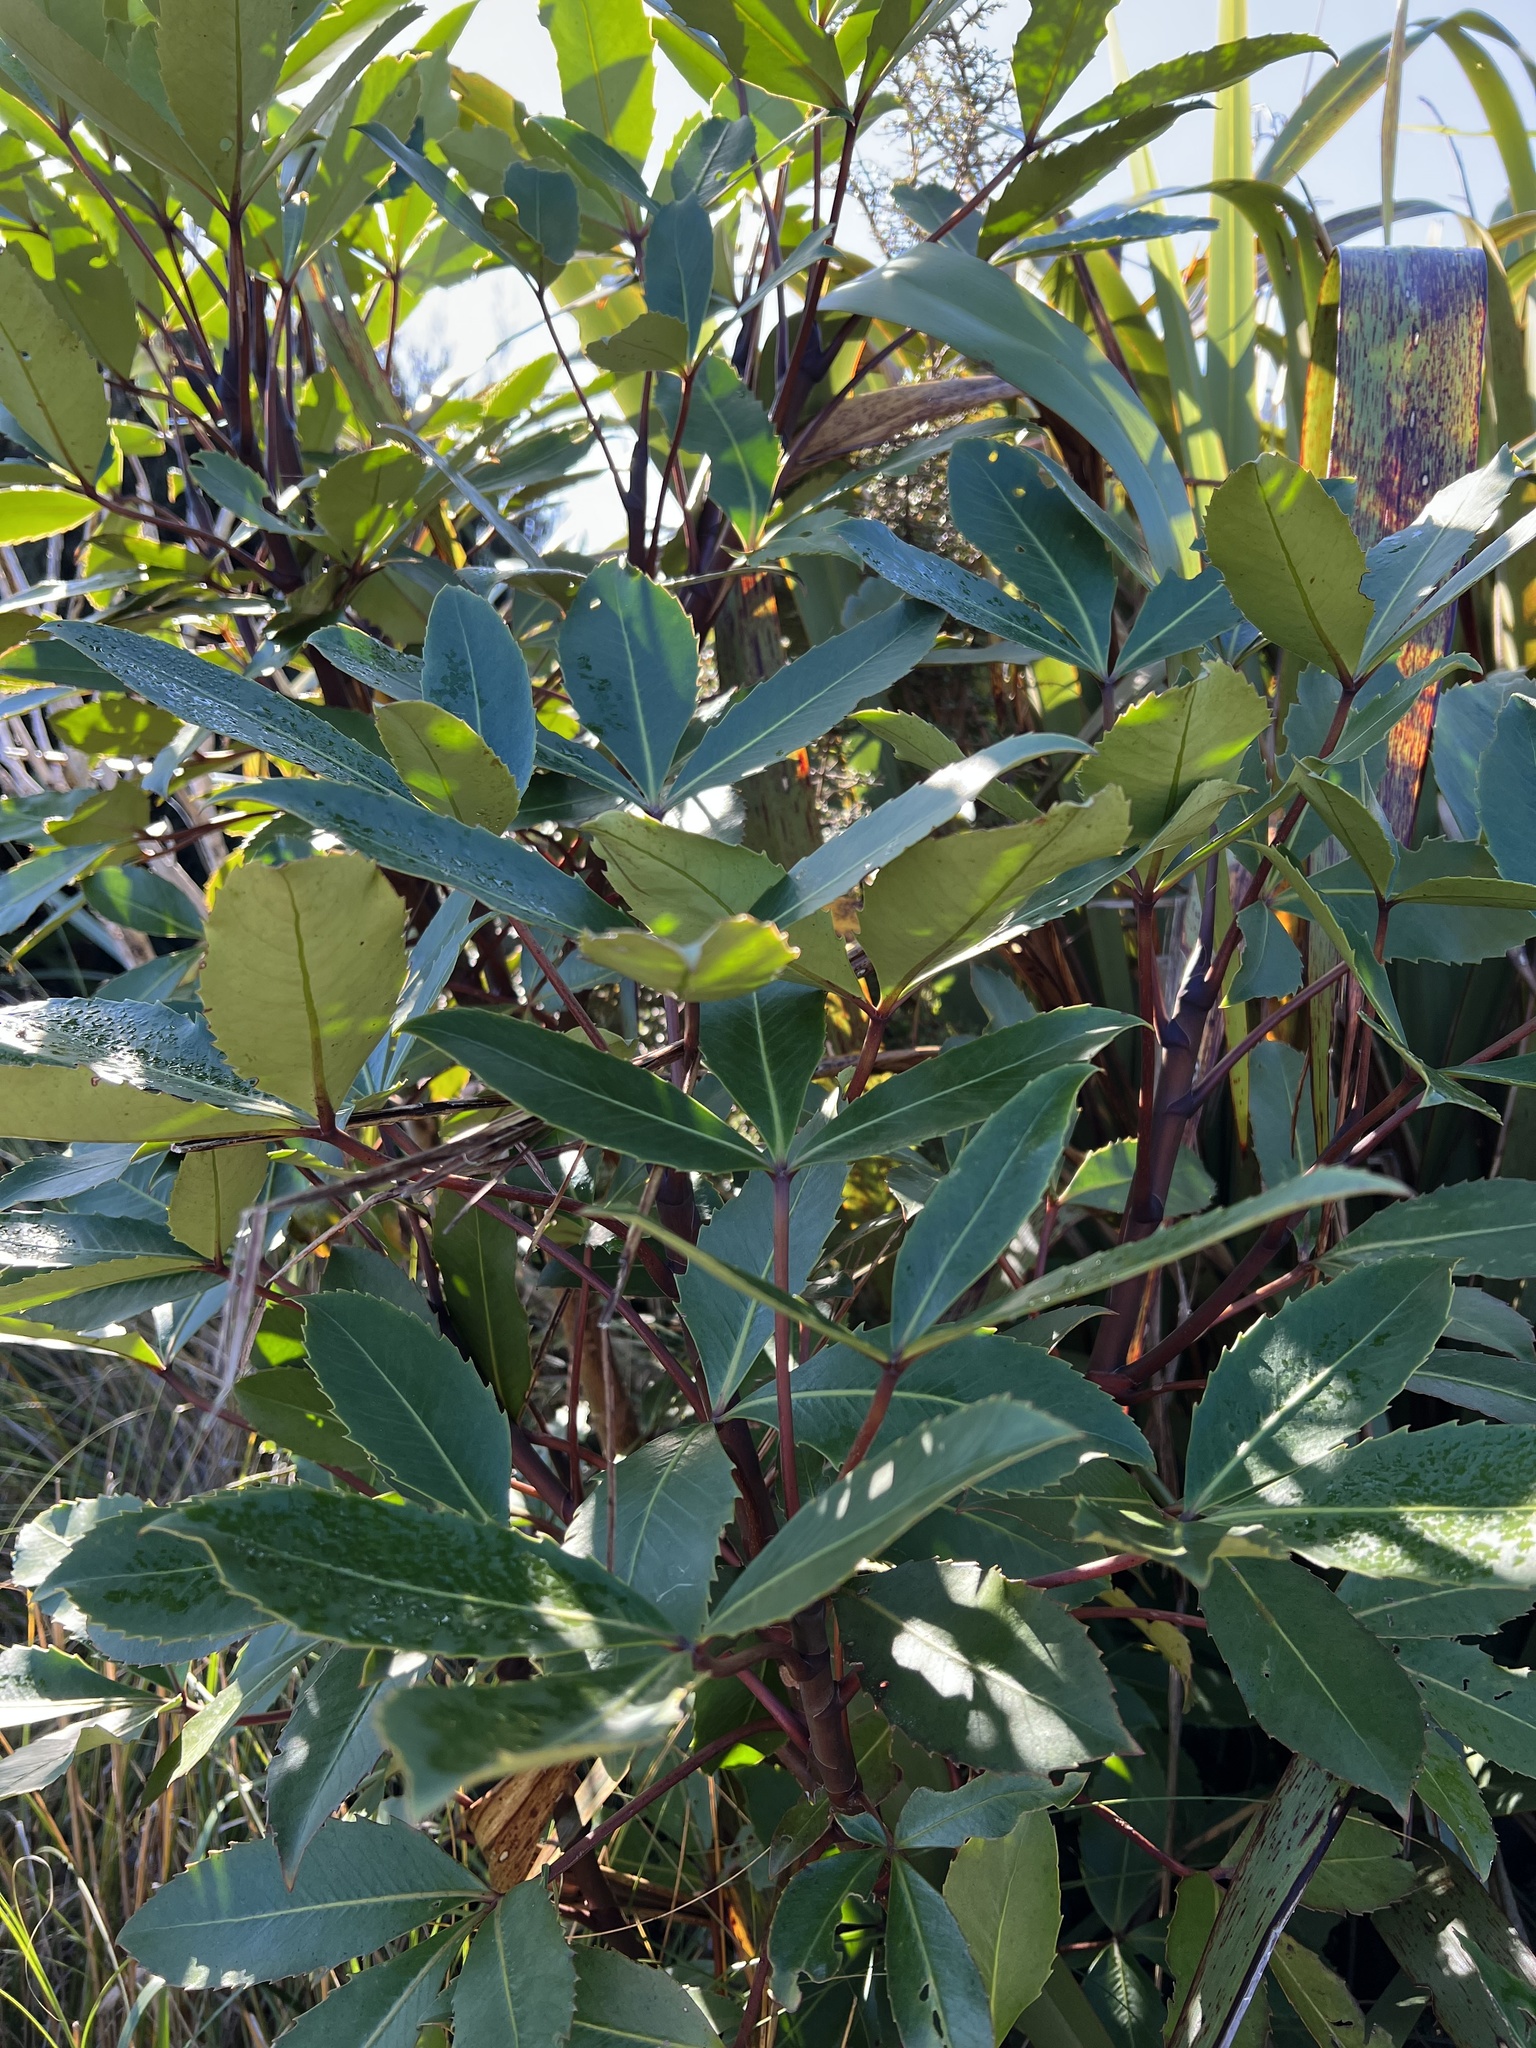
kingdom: Plantae
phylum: Tracheophyta
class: Magnoliopsida
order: Apiales
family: Araliaceae
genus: Neopanax
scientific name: Neopanax colensoi
